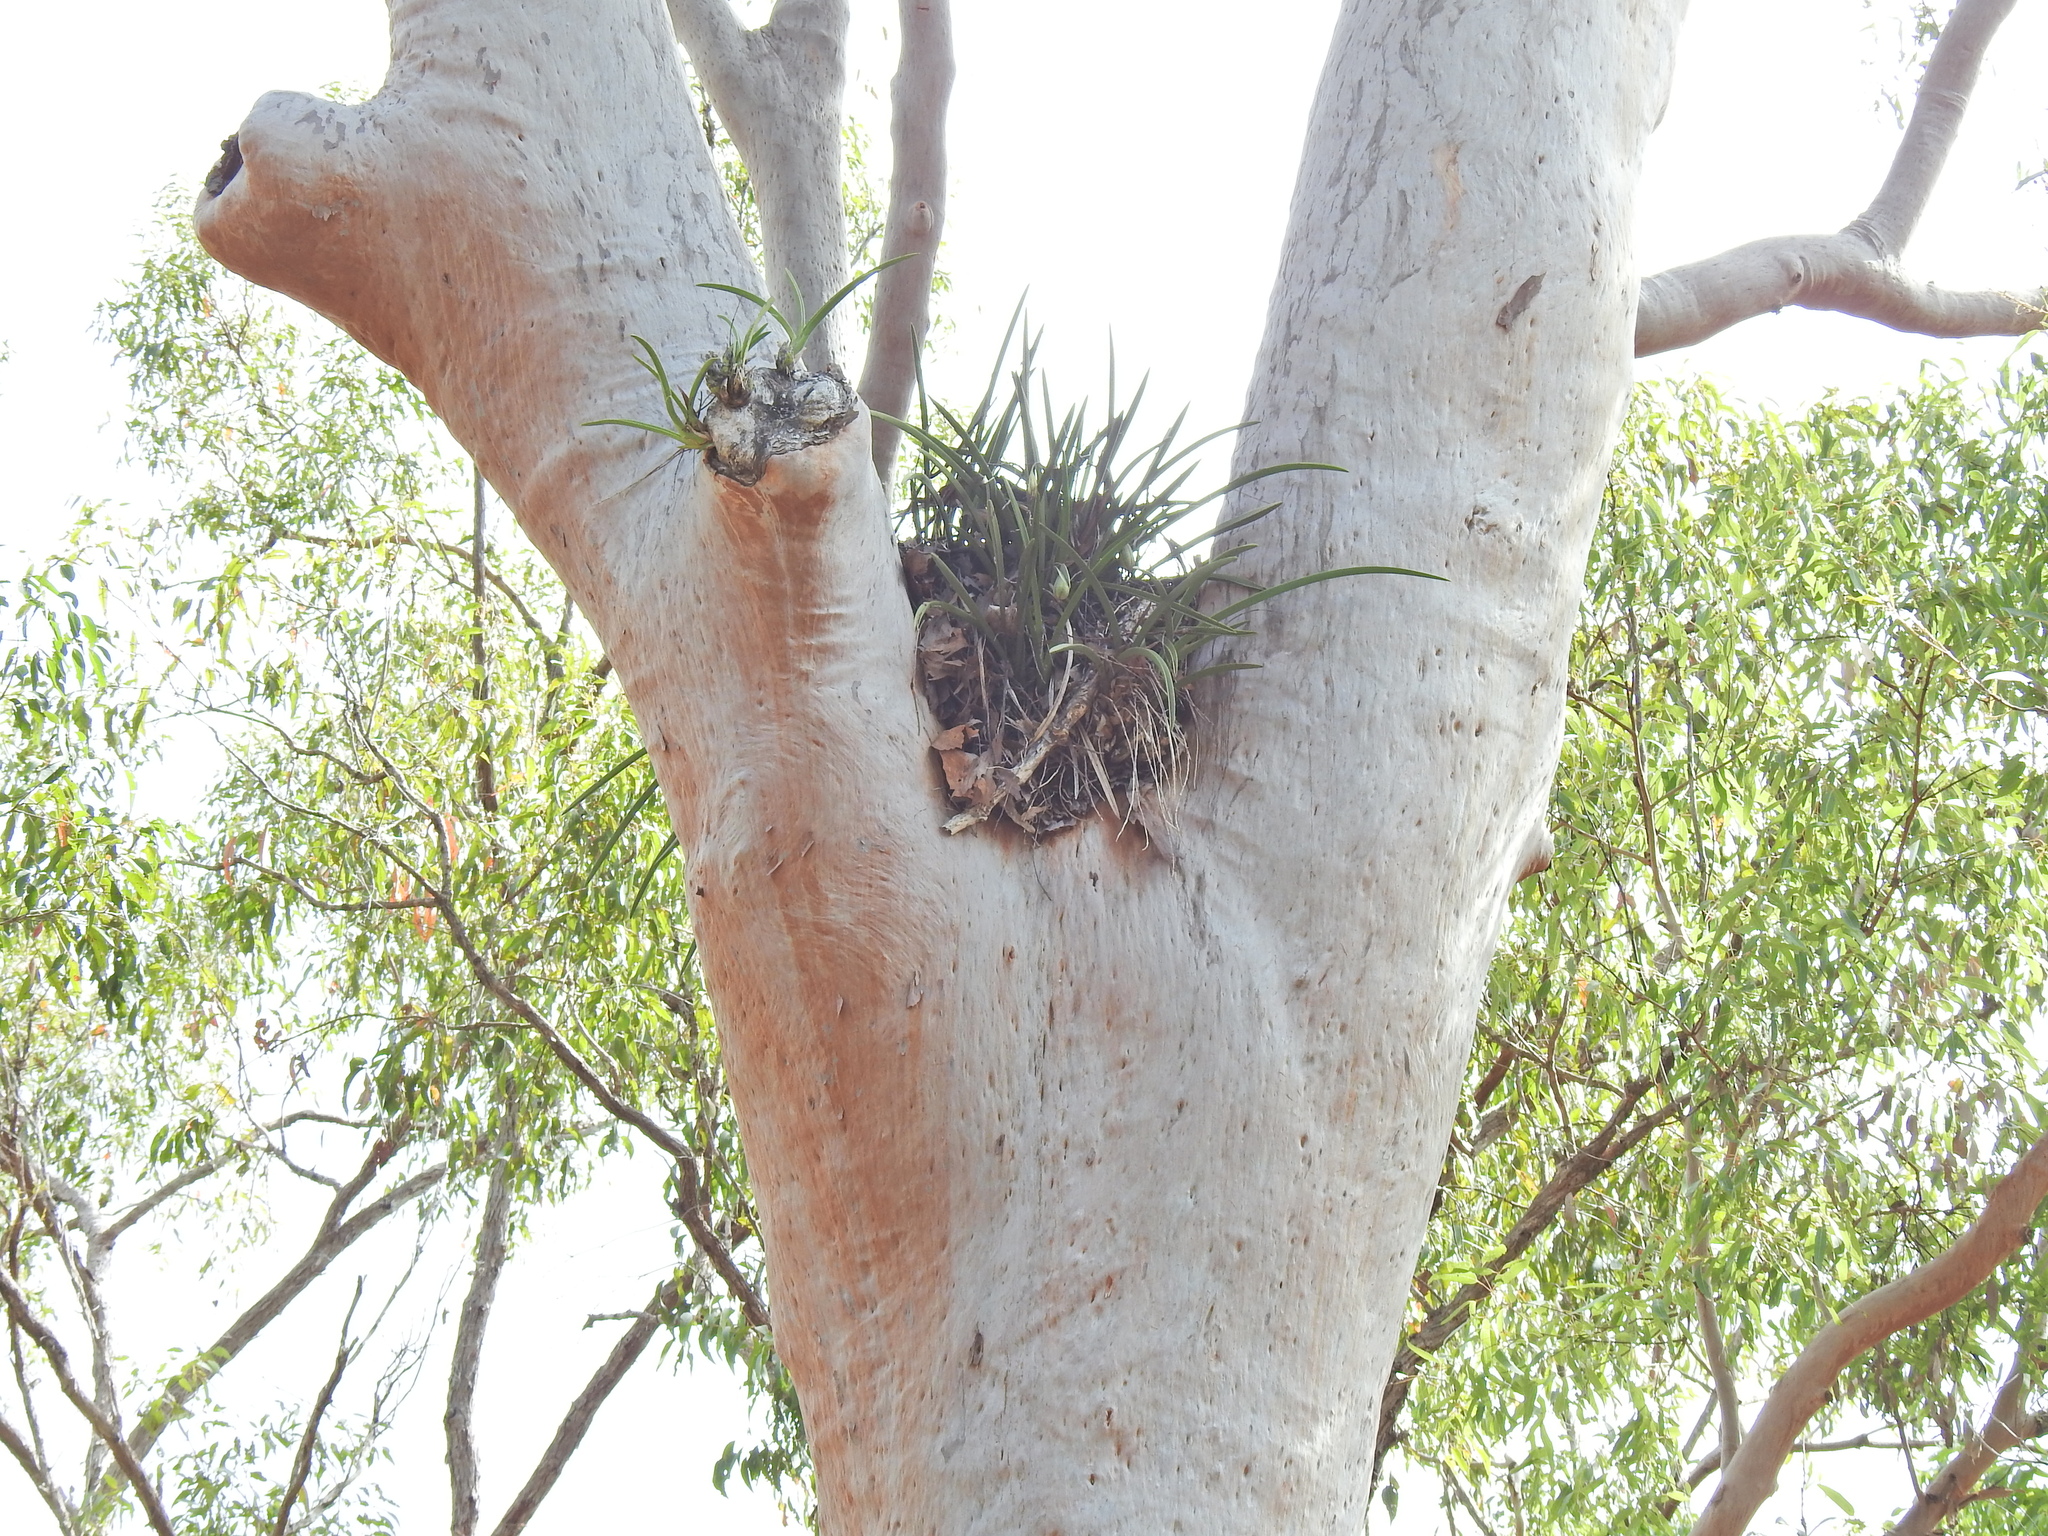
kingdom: Plantae
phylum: Tracheophyta
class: Liliopsida
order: Asparagales
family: Orchidaceae
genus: Cymbidium
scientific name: Cymbidium canaliculatum
